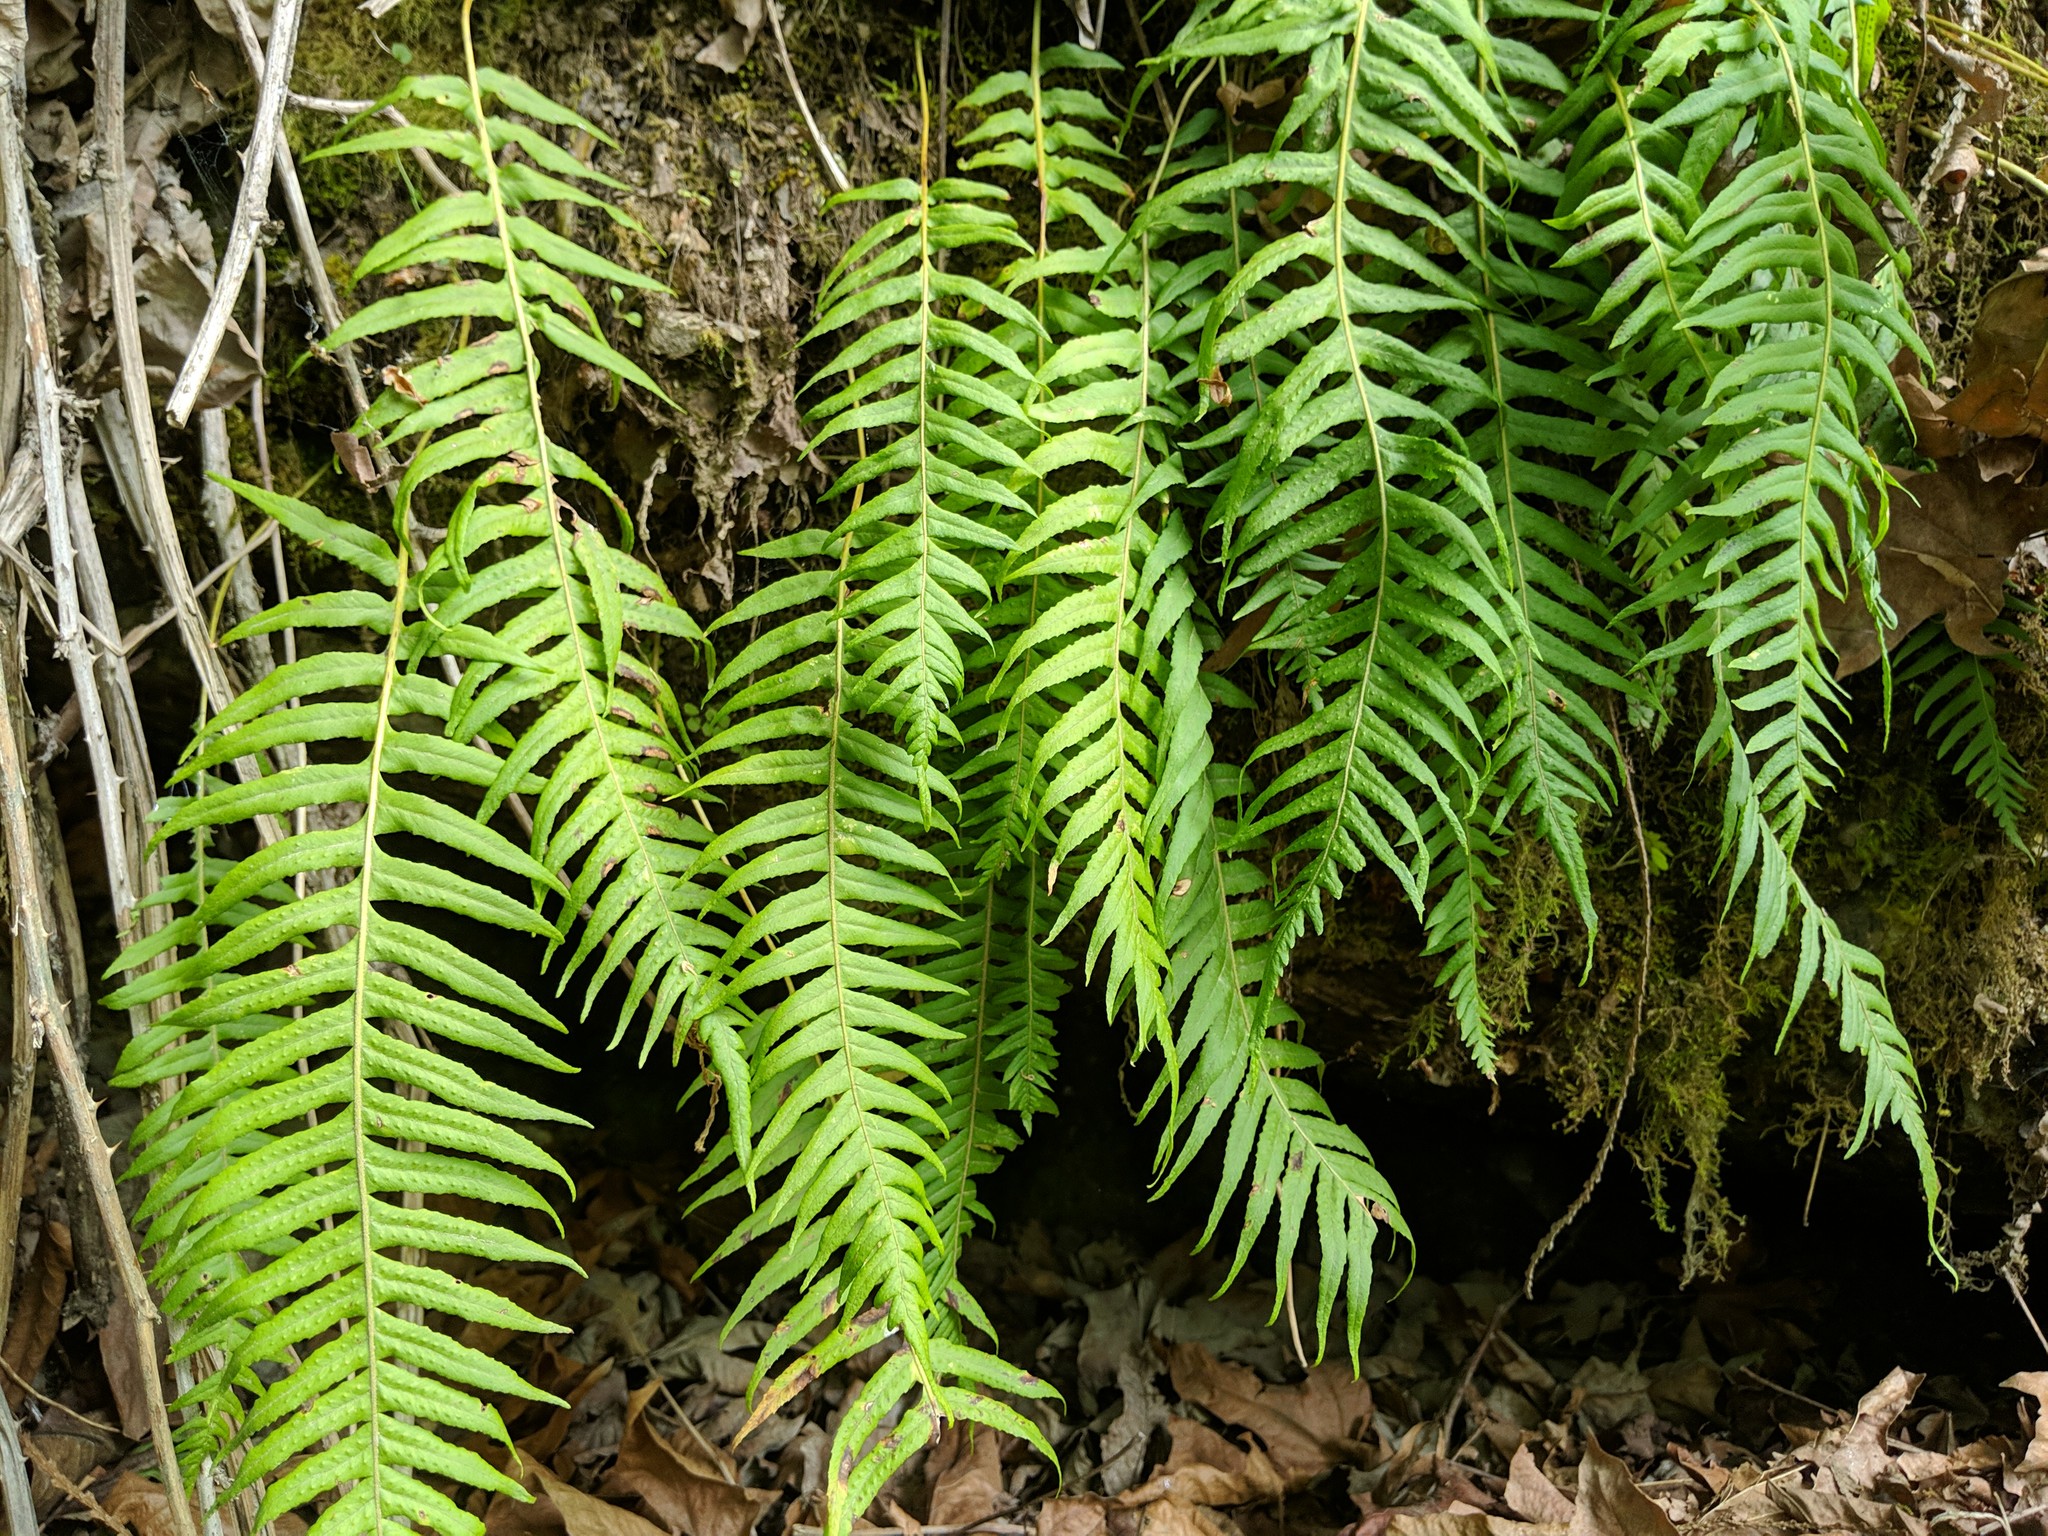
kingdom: Plantae
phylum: Tracheophyta
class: Polypodiopsida
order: Polypodiales
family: Polypodiaceae
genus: Polypodium
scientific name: Polypodium glycyrrhiza
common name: Licorice fern
